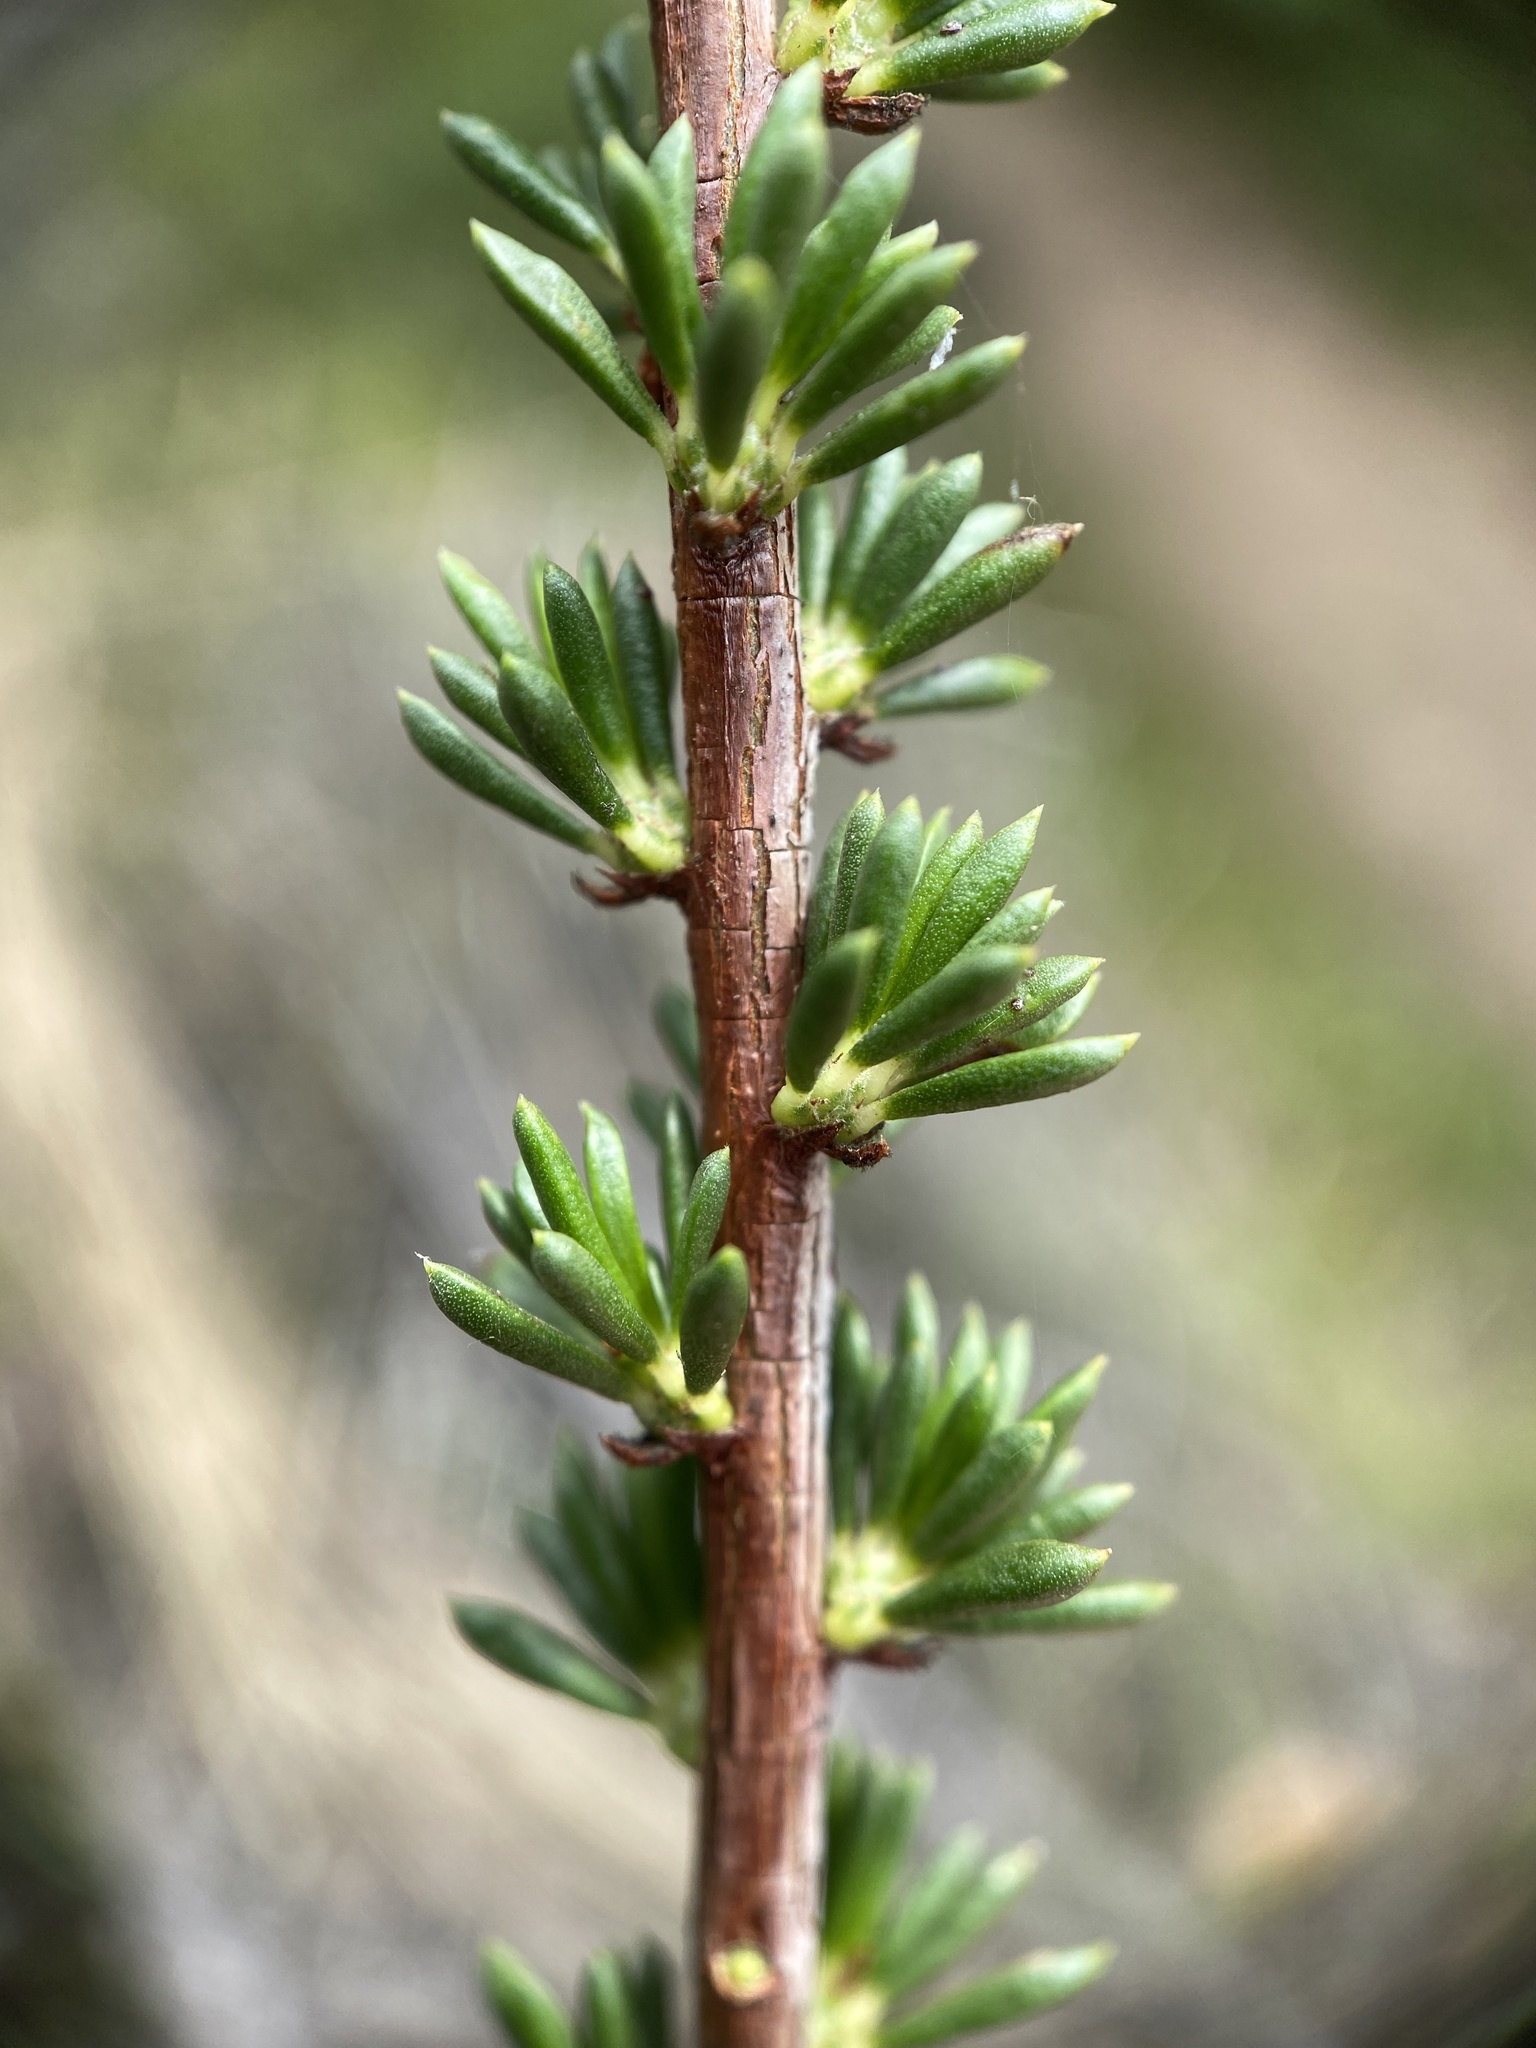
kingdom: Plantae
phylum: Tracheophyta
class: Magnoliopsida
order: Rosales
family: Rosaceae
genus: Adenostoma
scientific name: Adenostoma fasciculatum
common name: Chamise
